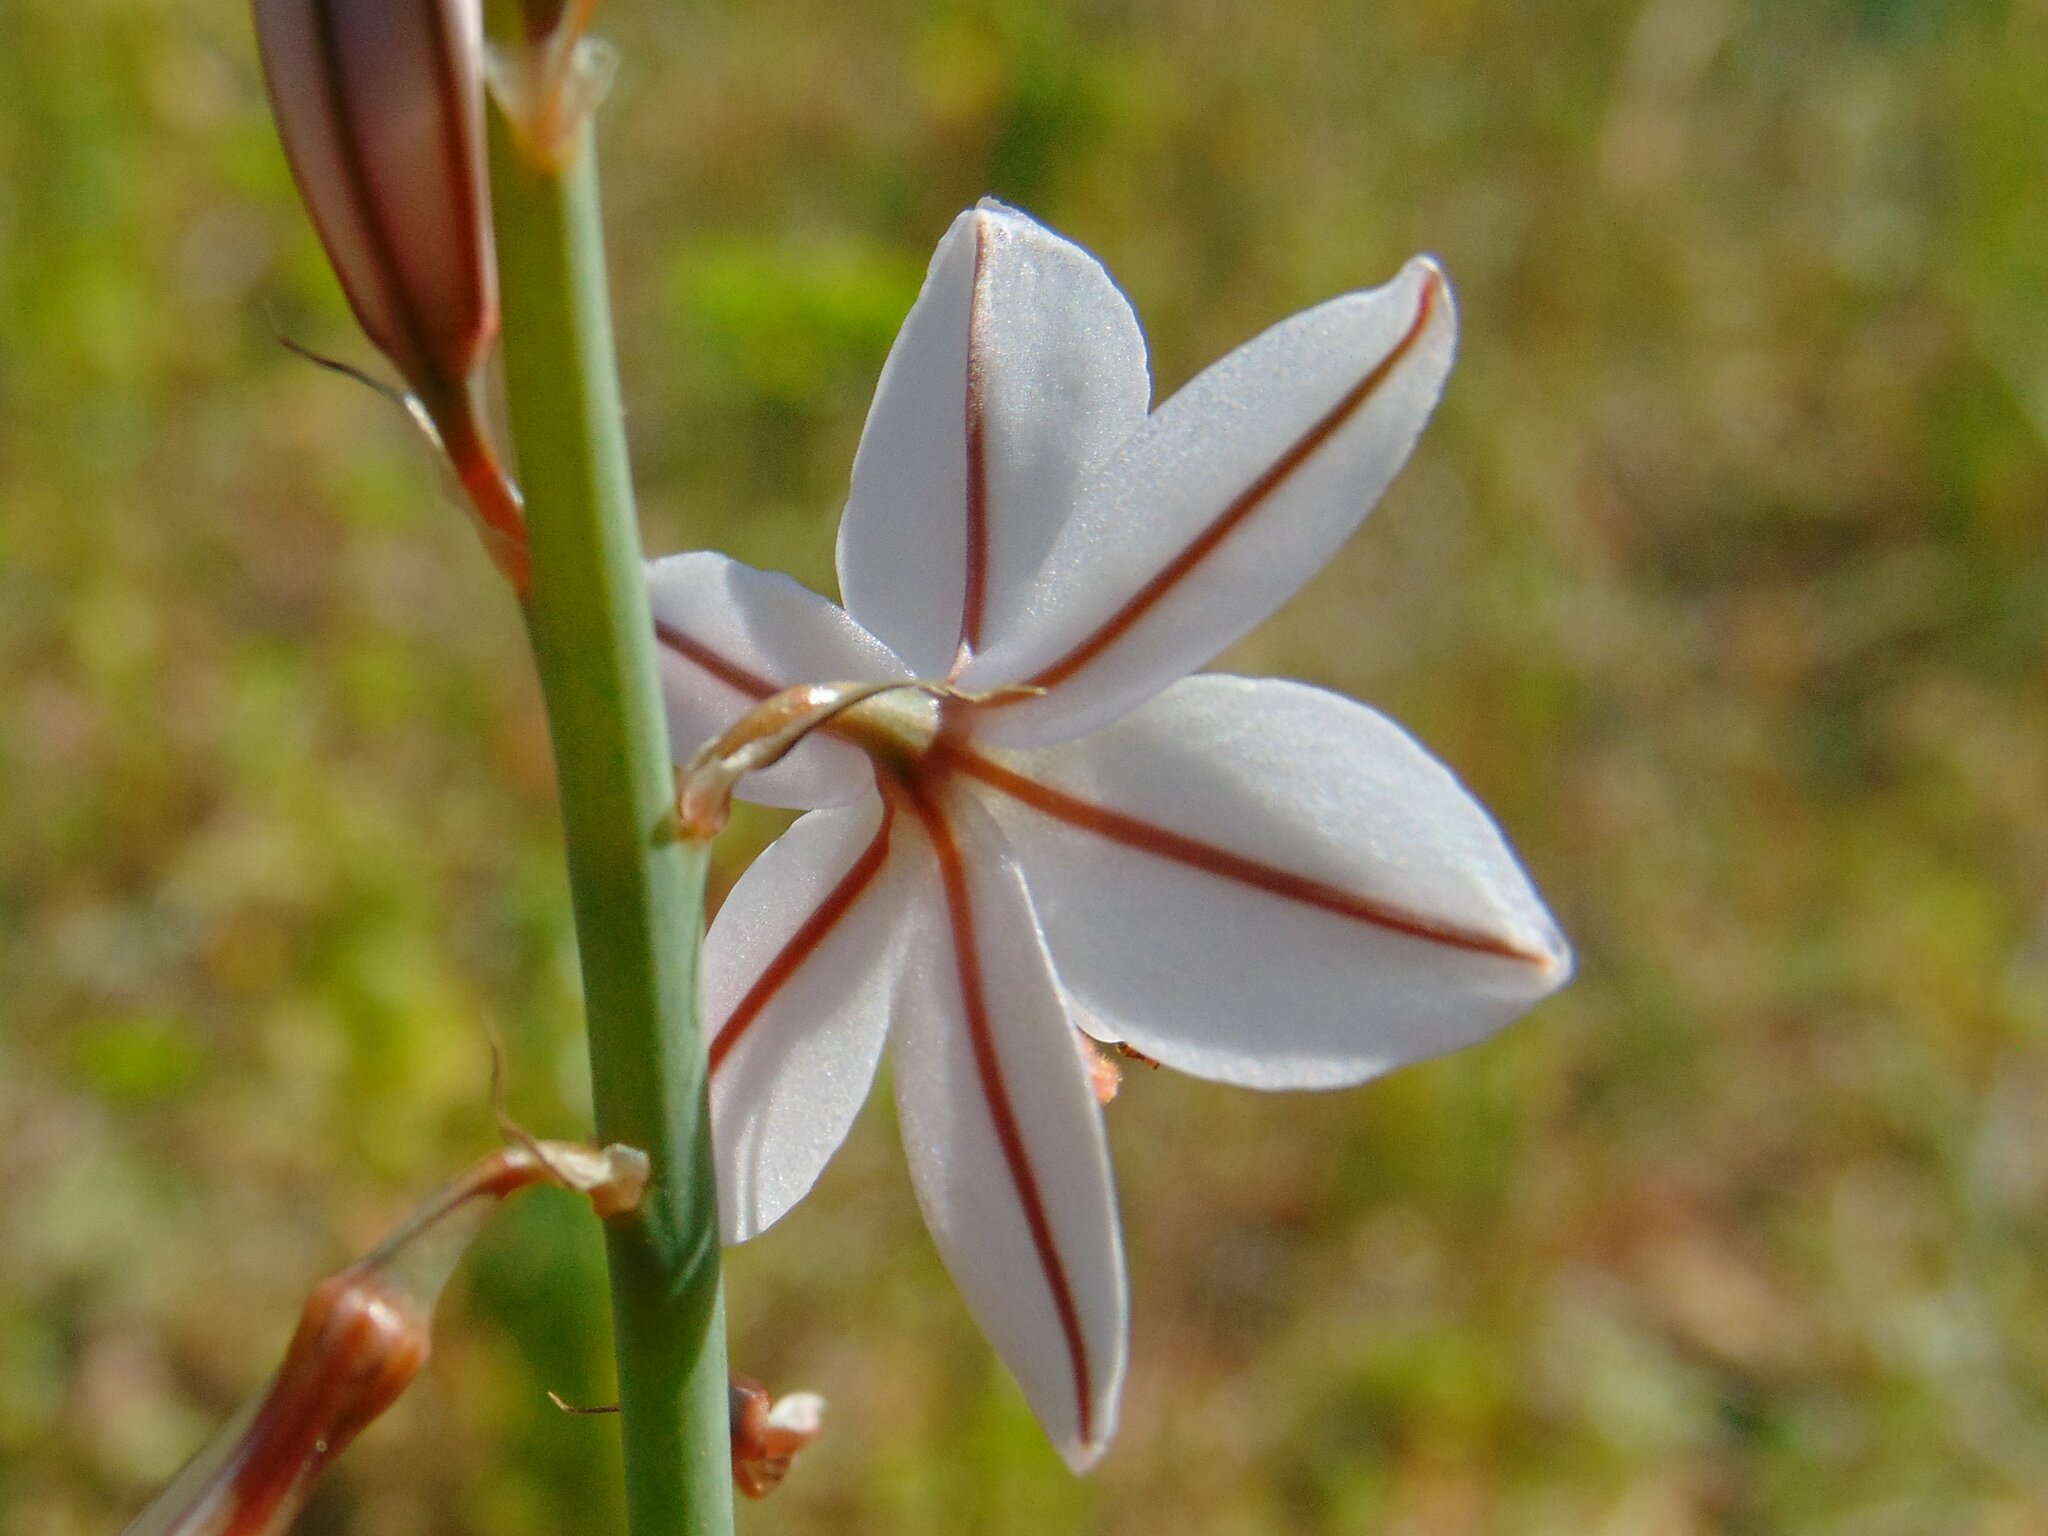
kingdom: Plantae
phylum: Tracheophyta
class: Liliopsida
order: Asparagales
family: Asphodelaceae
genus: Asphodelus
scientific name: Asphodelus fistulosus
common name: Onionweed
